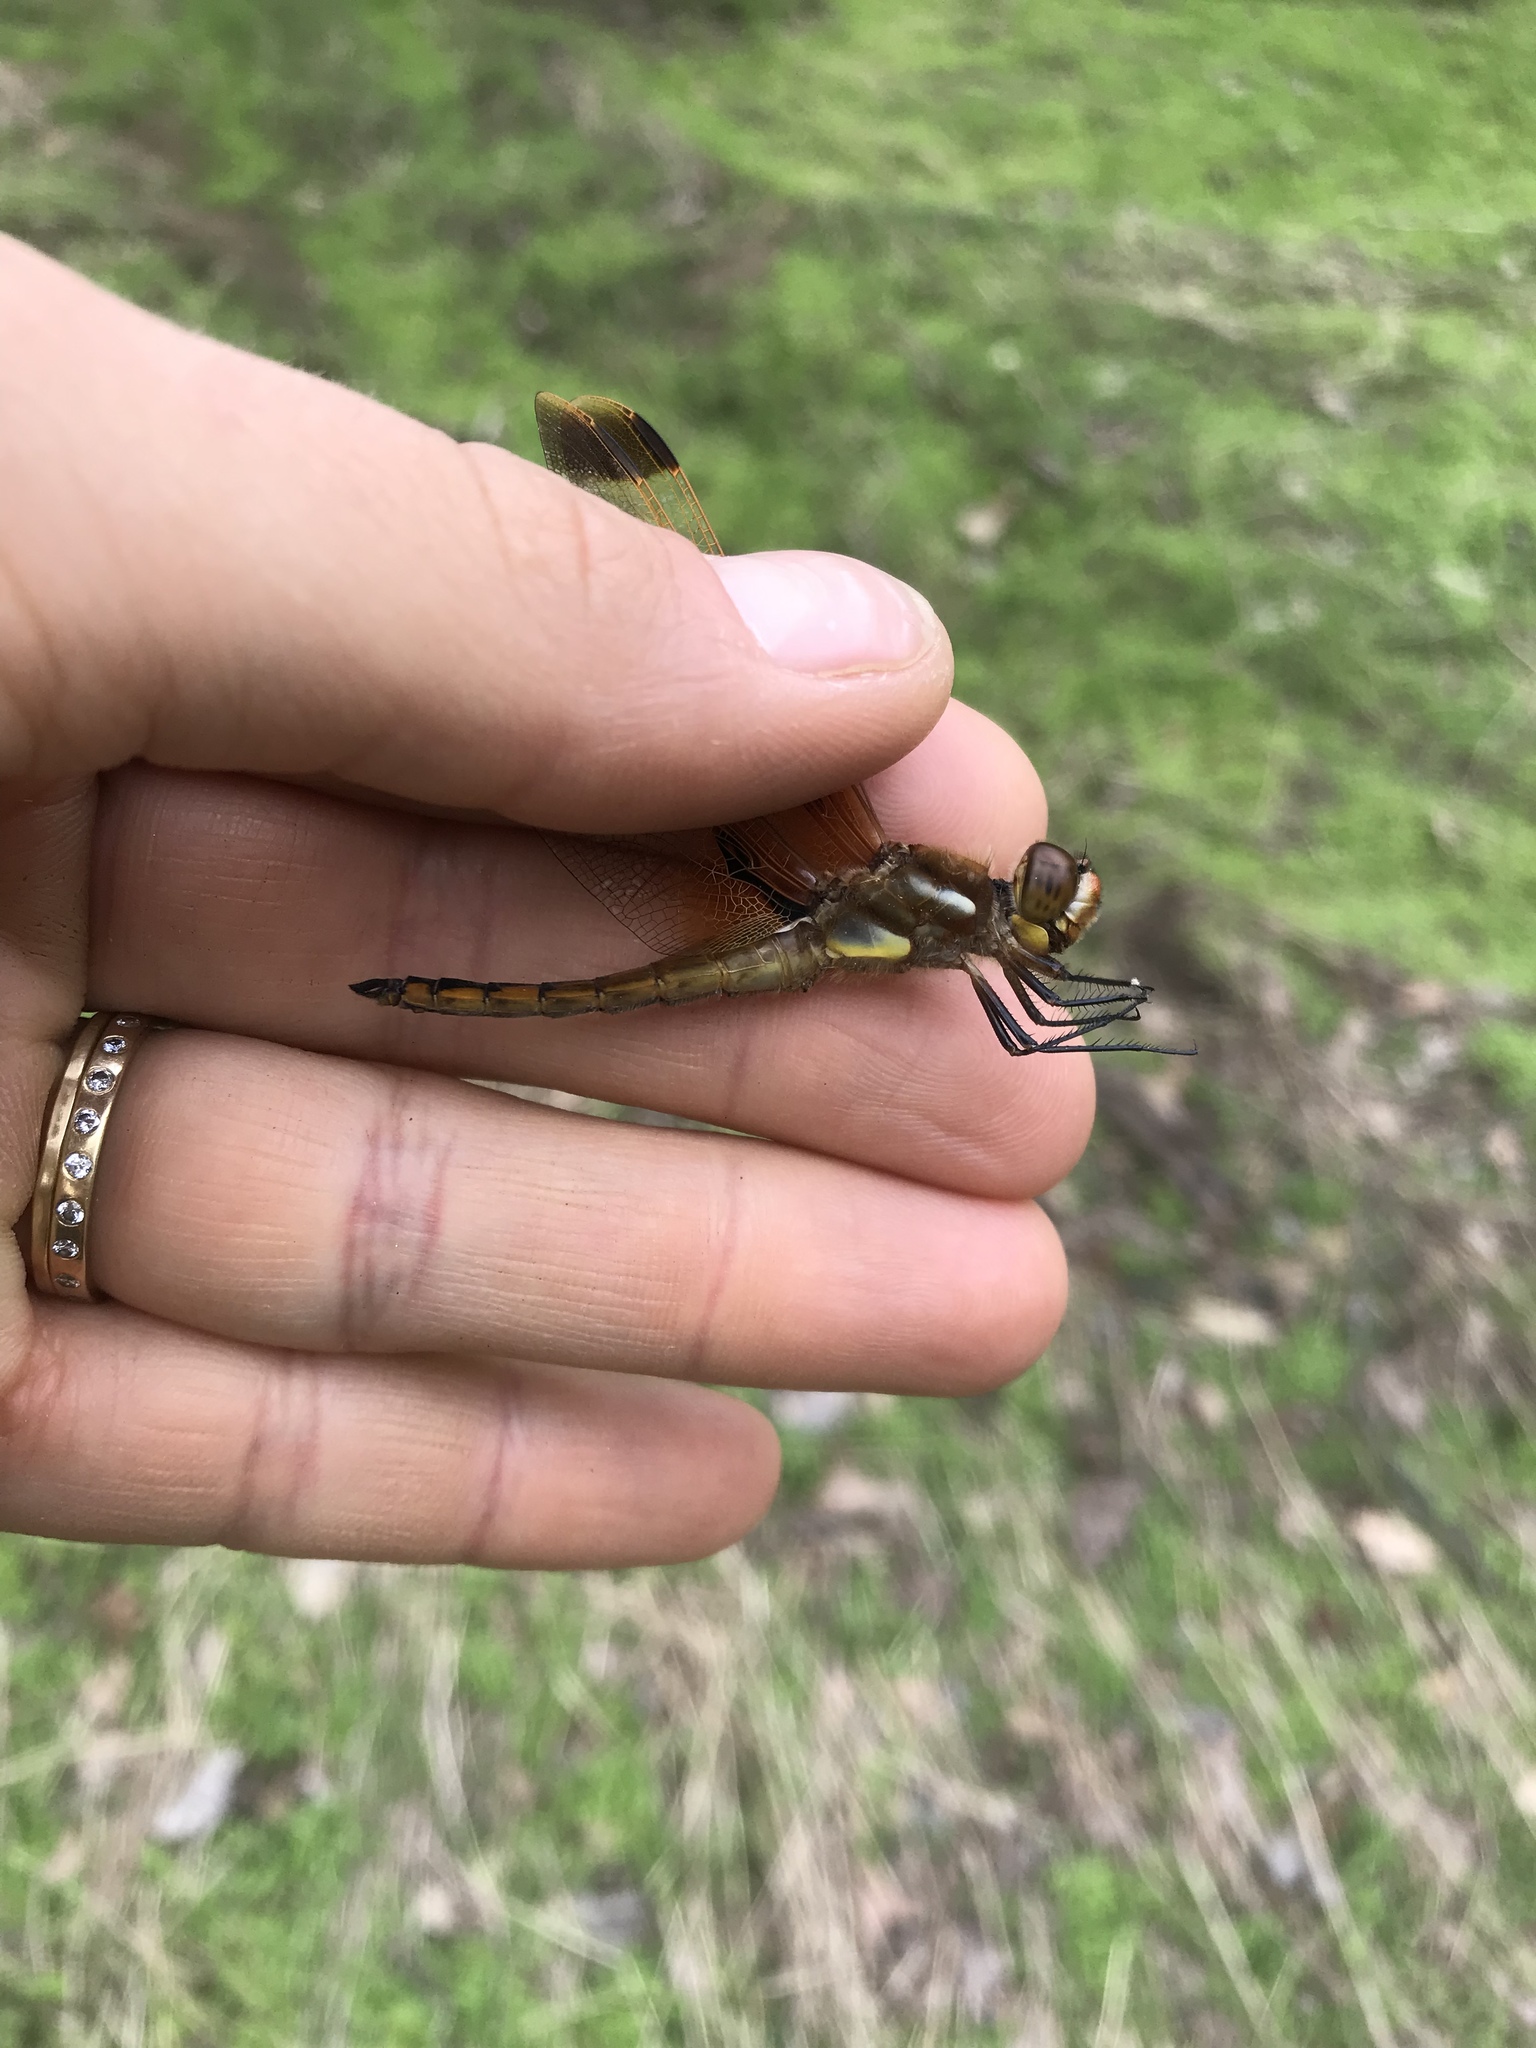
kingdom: Animalia
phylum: Arthropoda
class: Insecta
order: Odonata
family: Libellulidae
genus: Libellula
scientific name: Libellula semifasciata
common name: Painted skimmer
